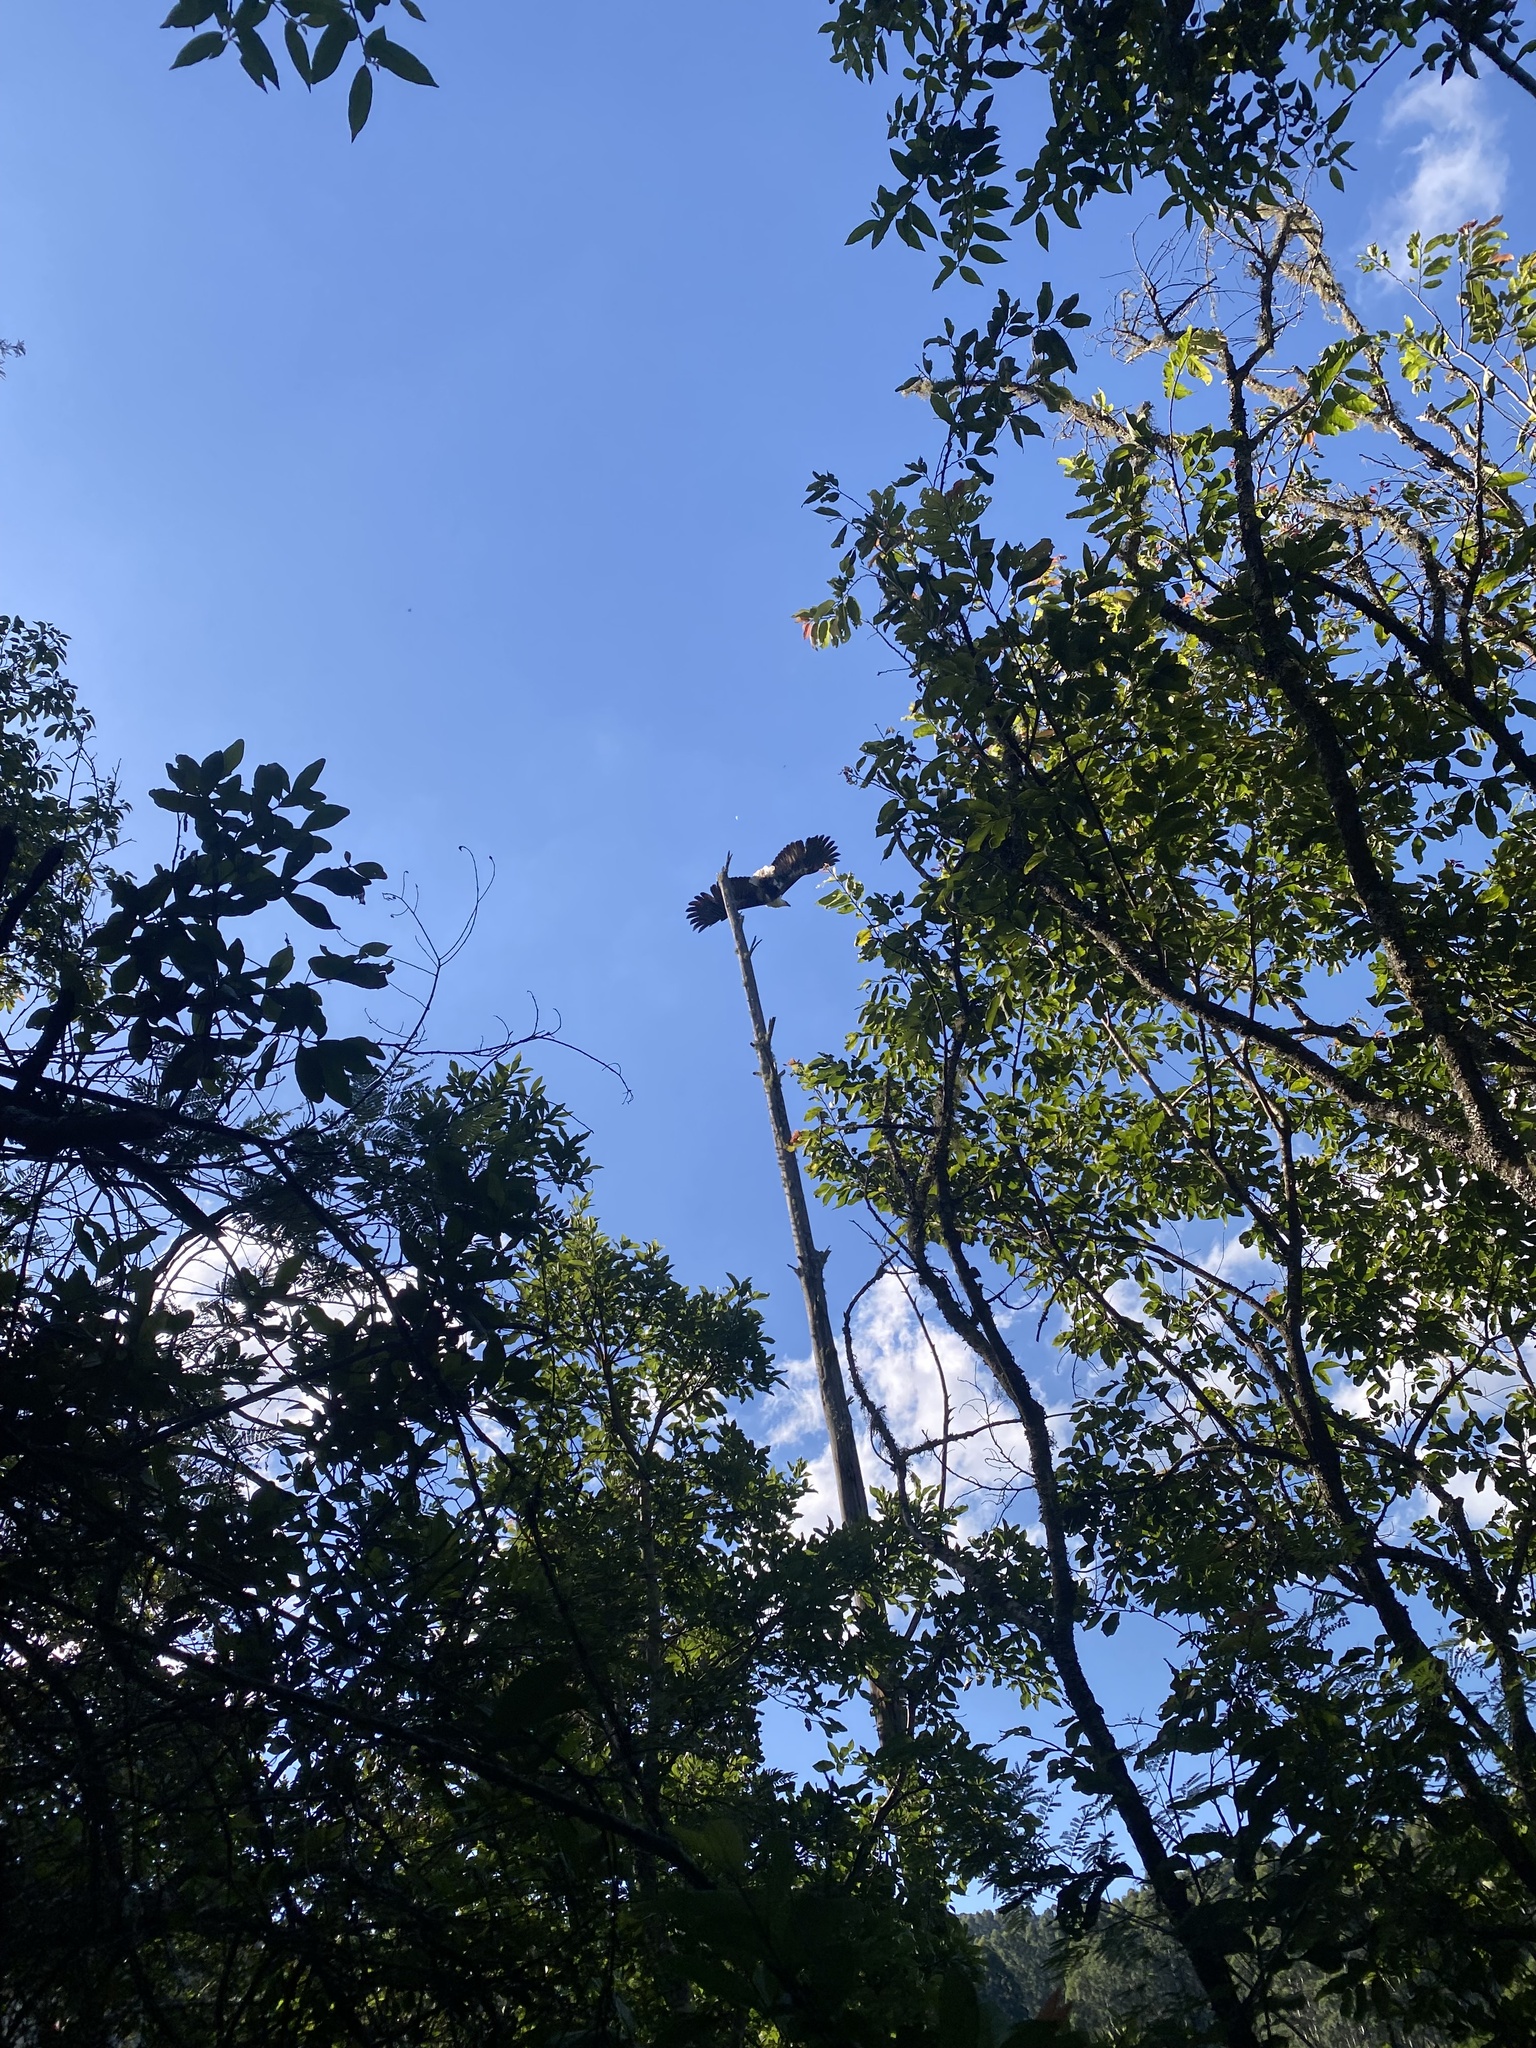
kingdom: Animalia
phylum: Chordata
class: Aves
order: Accipitriformes
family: Accipitridae
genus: Haliaeetus
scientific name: Haliaeetus vocifer
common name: African fish eagle
